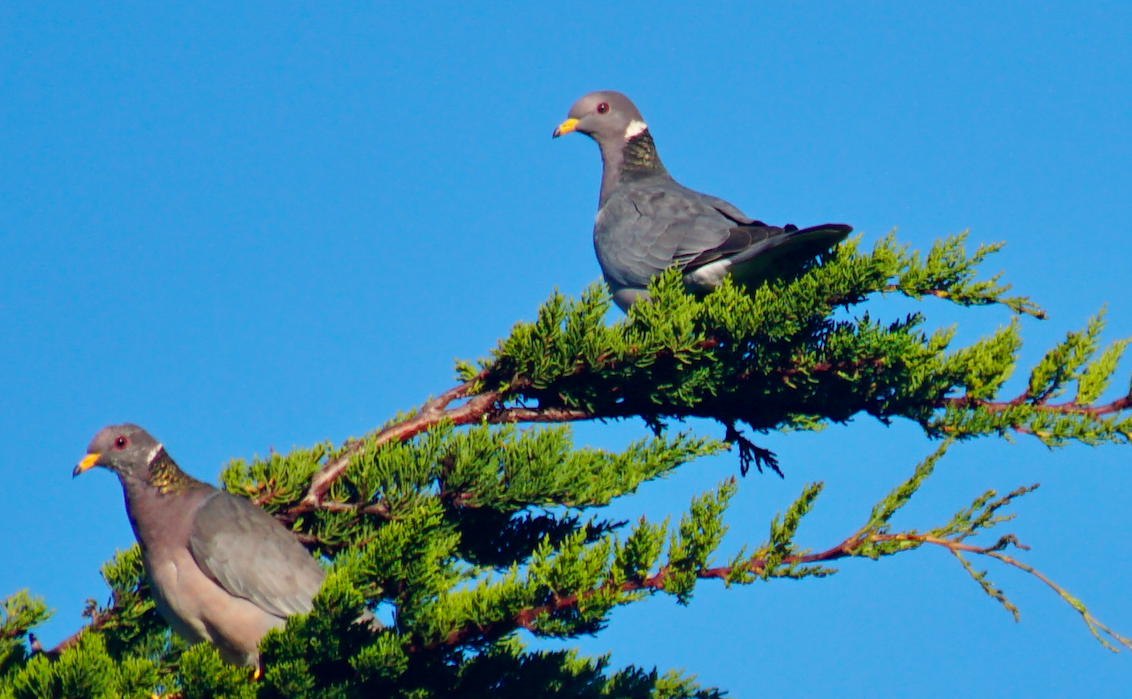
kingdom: Animalia
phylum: Chordata
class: Aves
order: Columbiformes
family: Columbidae
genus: Patagioenas
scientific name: Patagioenas fasciata
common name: Band-tailed pigeon
